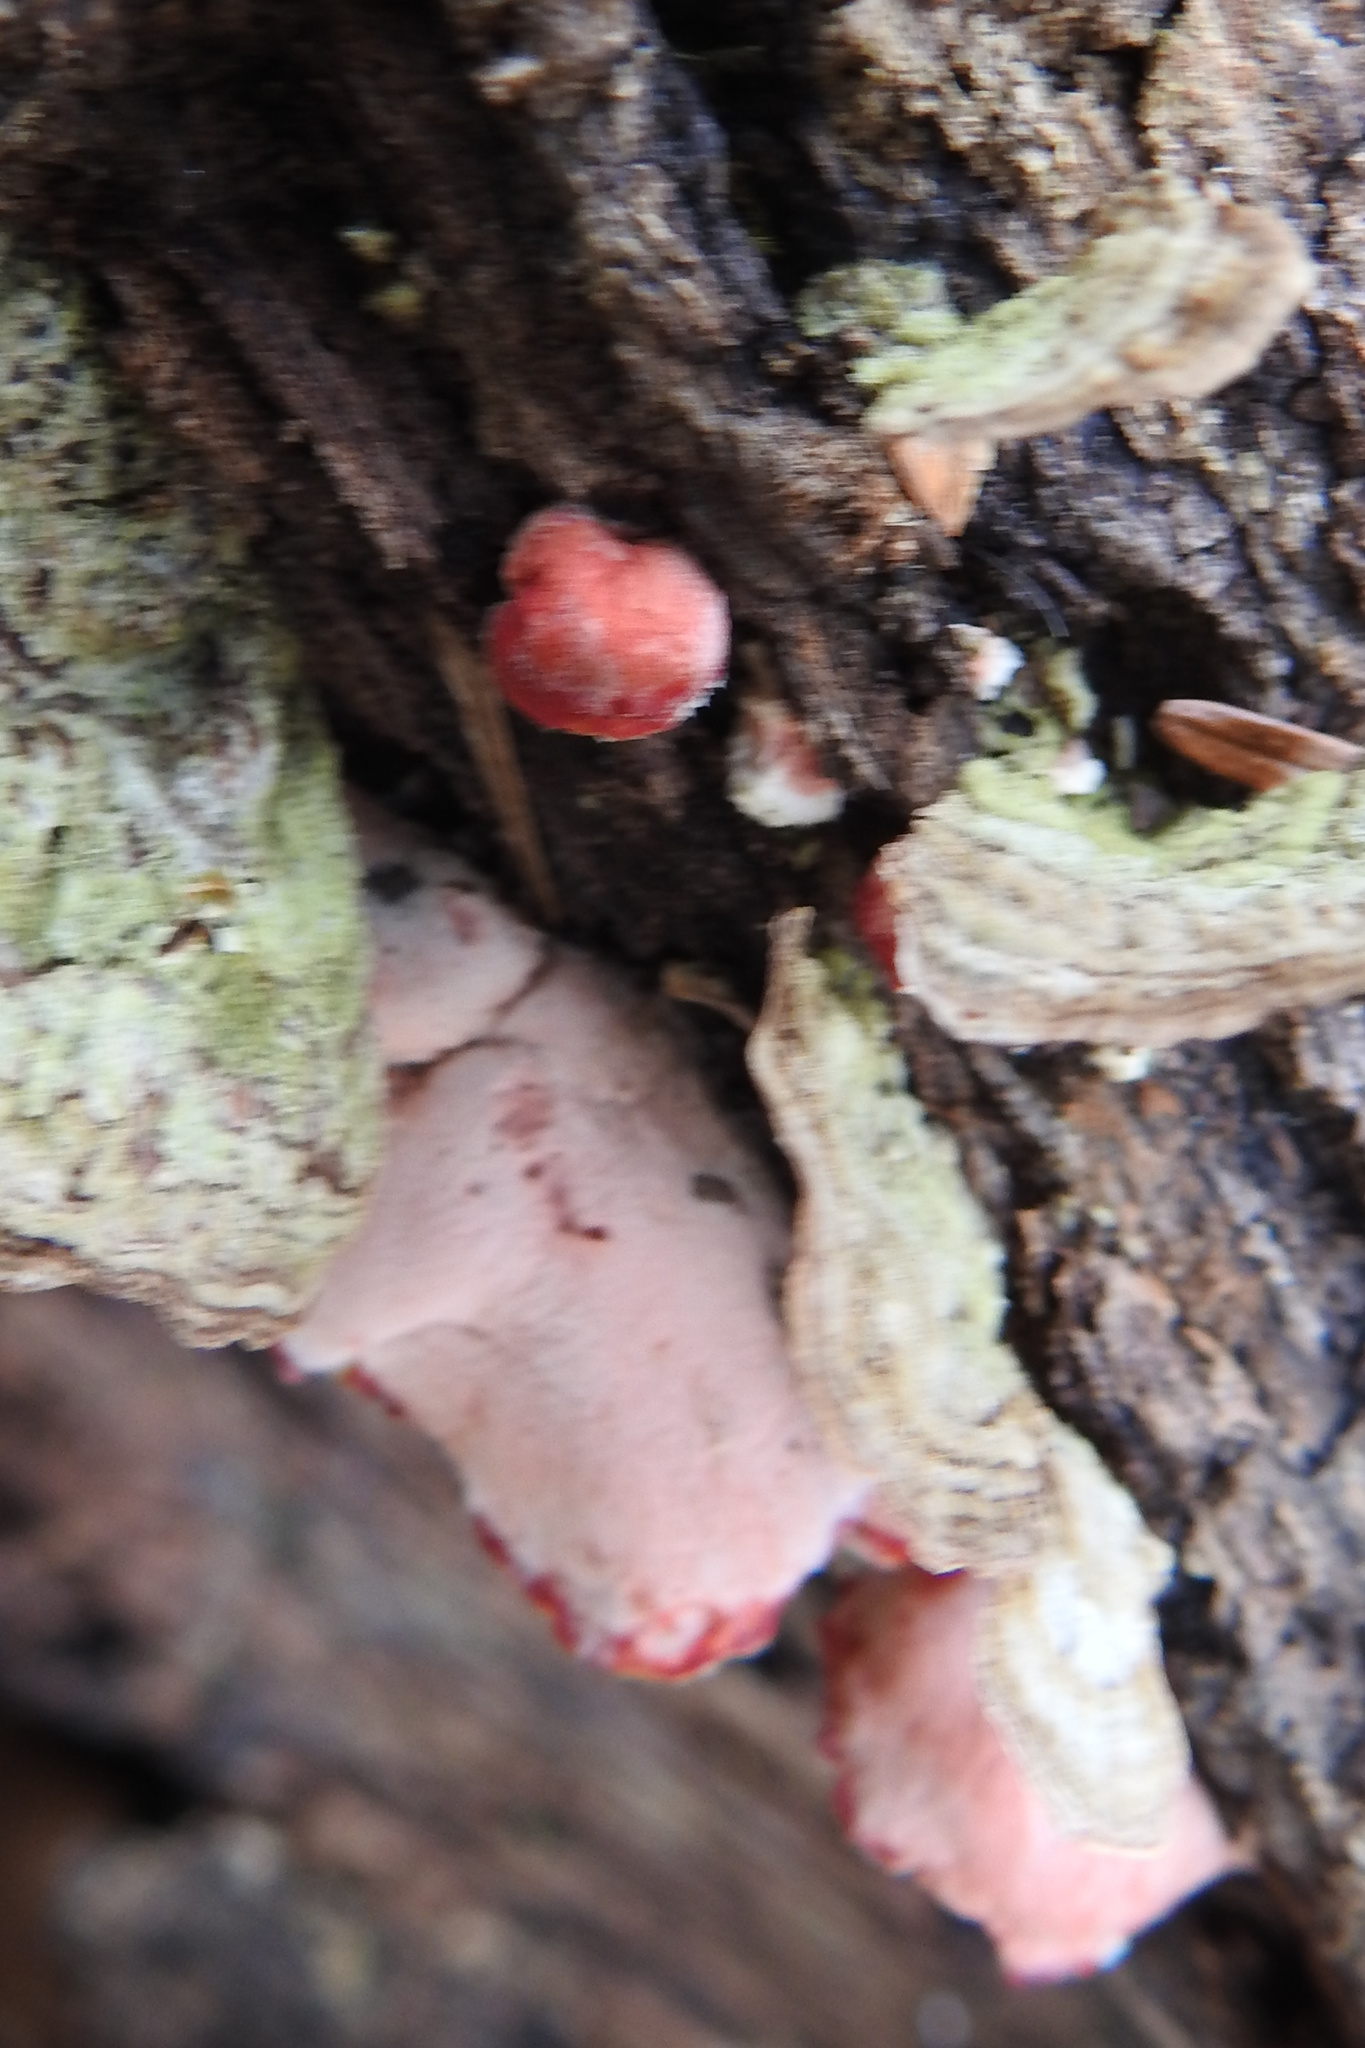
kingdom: Fungi
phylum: Basidiomycota
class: Agaricomycetes
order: Polyporales
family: Irpicaceae
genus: Byssomerulius
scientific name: Byssomerulius incarnatus
